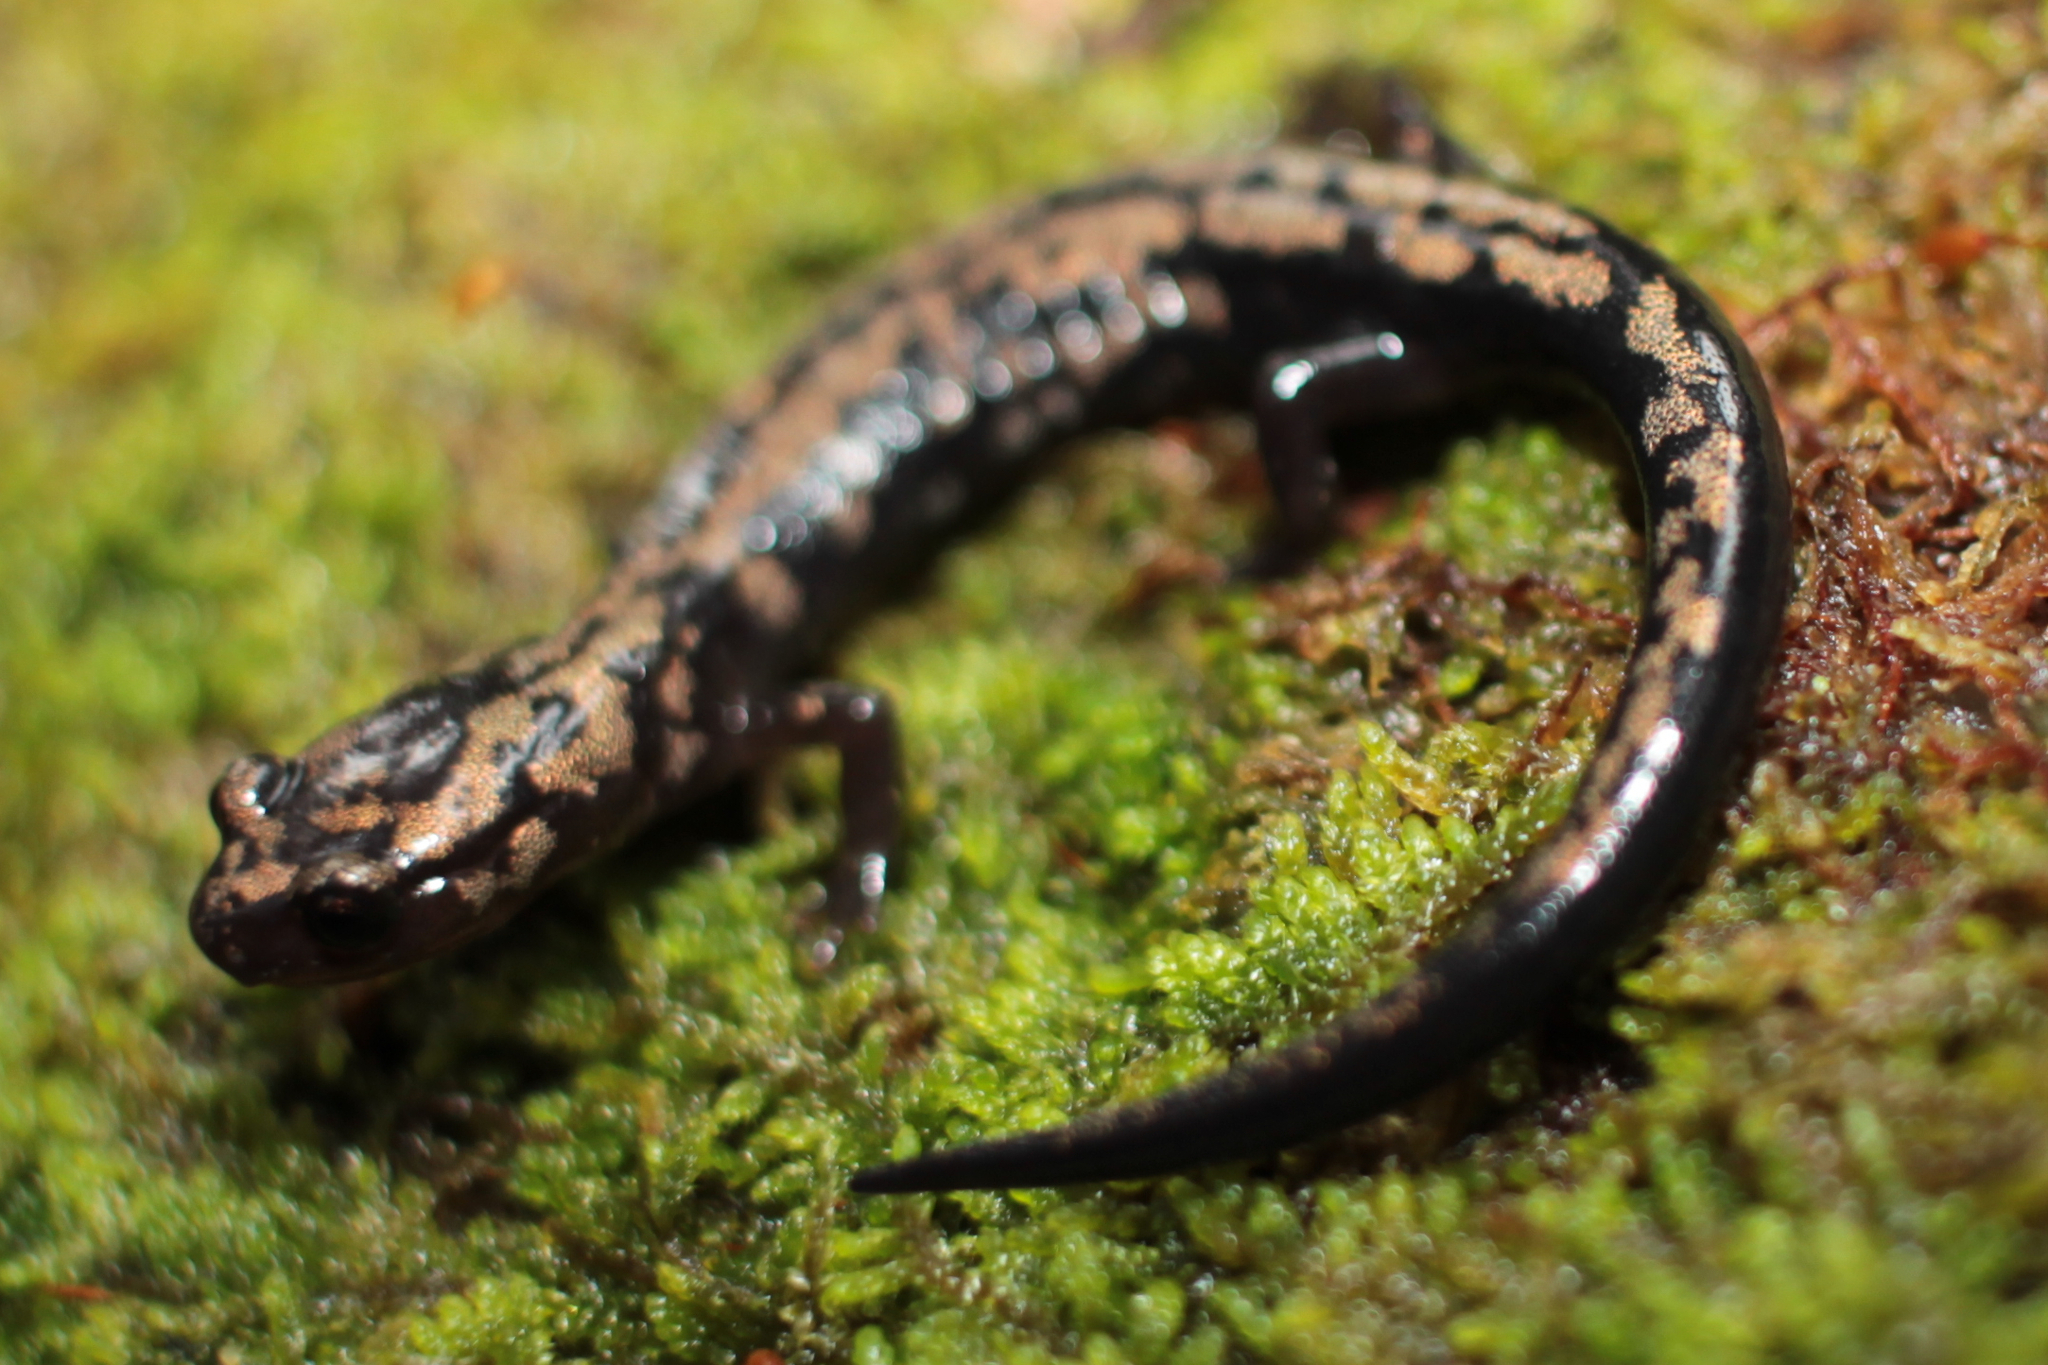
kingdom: Animalia
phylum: Chordata
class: Amphibia
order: Caudata
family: Plethodontidae
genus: Plethodon
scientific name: Plethodon welleri
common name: Weller's salamander
